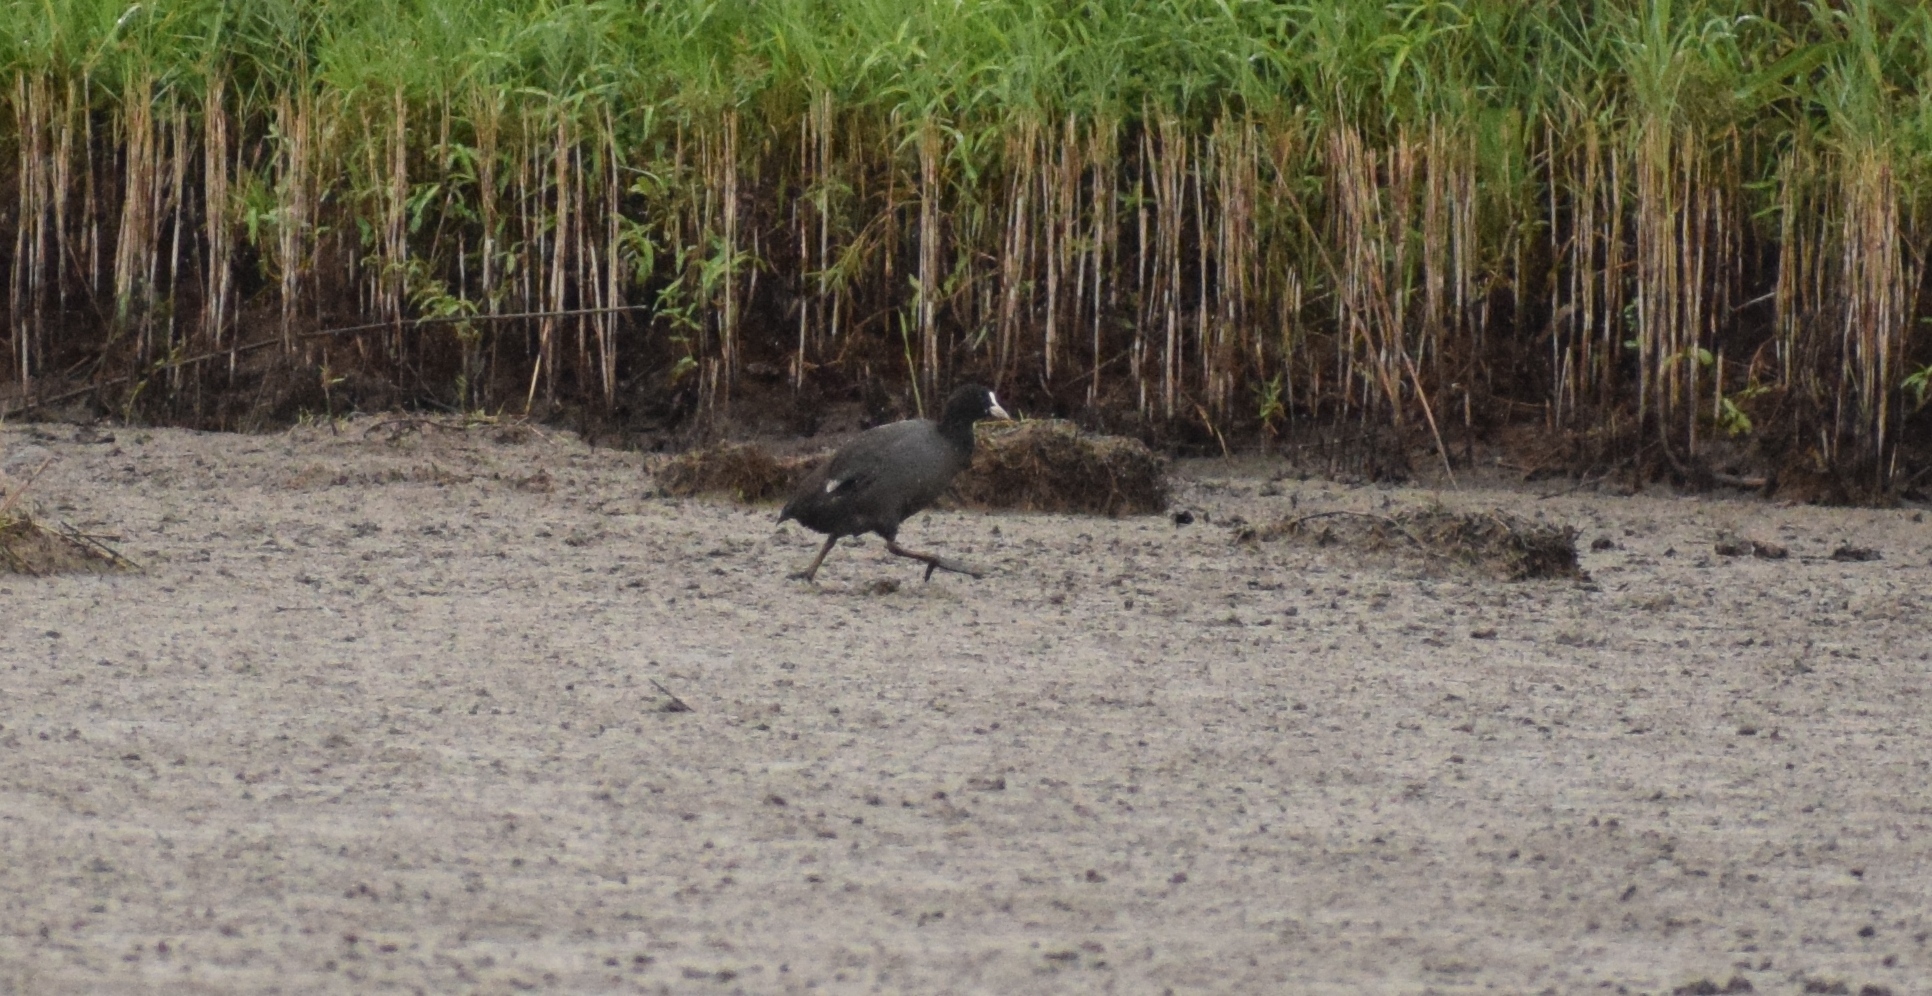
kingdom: Animalia
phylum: Chordata
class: Aves
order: Gruiformes
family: Rallidae
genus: Fulica
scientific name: Fulica atra
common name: Eurasian coot
